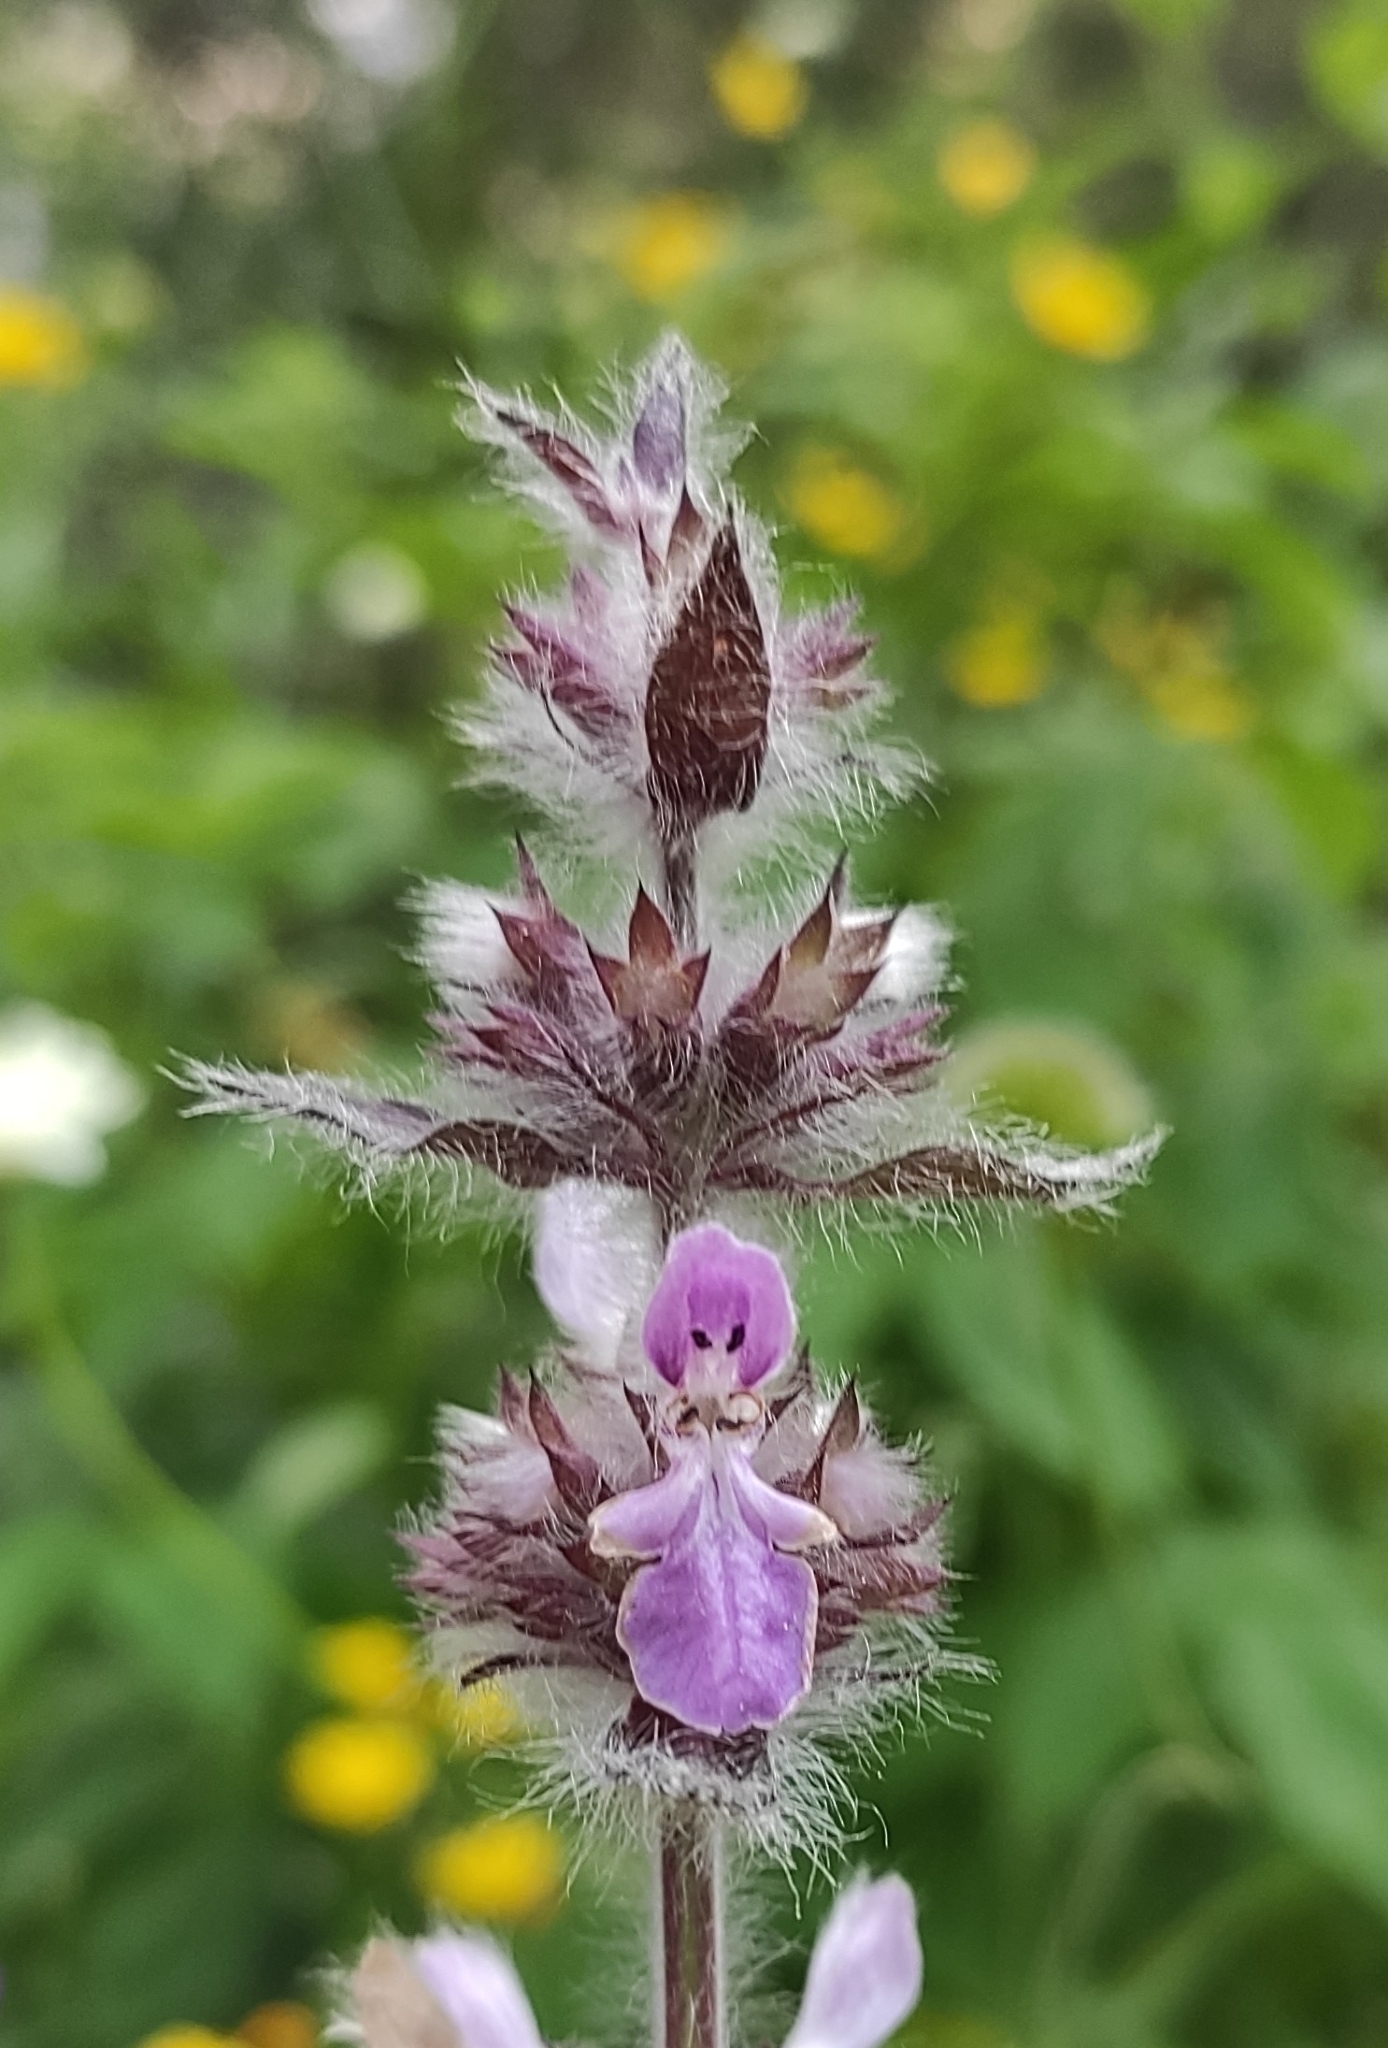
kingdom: Plantae
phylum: Tracheophyta
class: Magnoliopsida
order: Lamiales
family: Lamiaceae
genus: Stachys
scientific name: Stachys balansae
